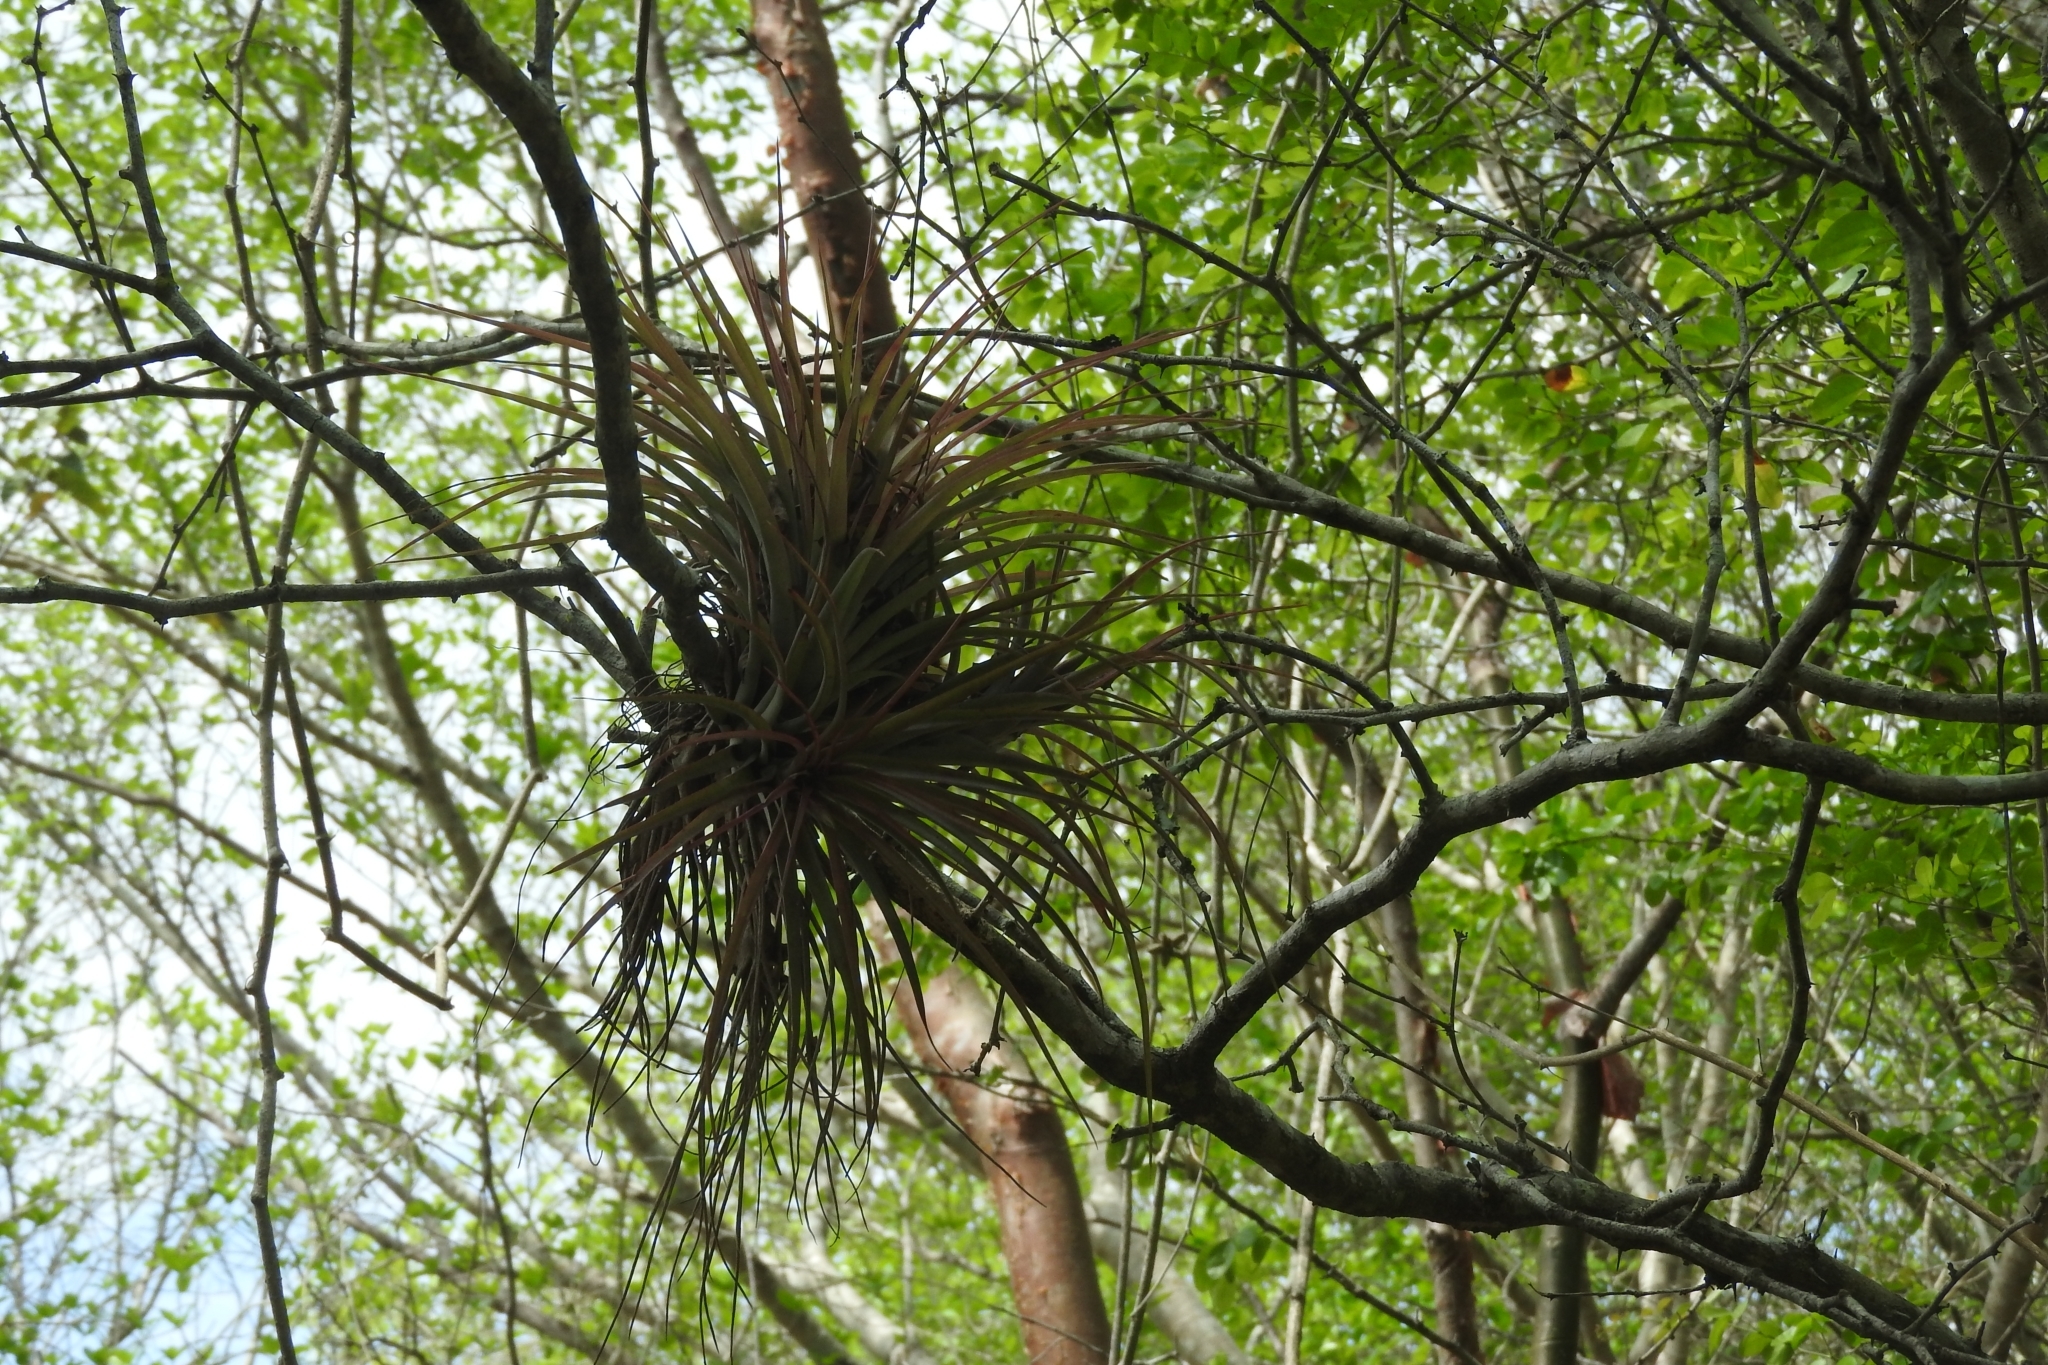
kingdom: Plantae
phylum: Tracheophyta
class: Liliopsida
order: Poales
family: Bromeliaceae
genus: Tillandsia
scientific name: Tillandsia fasciculata
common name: Giant airplant
